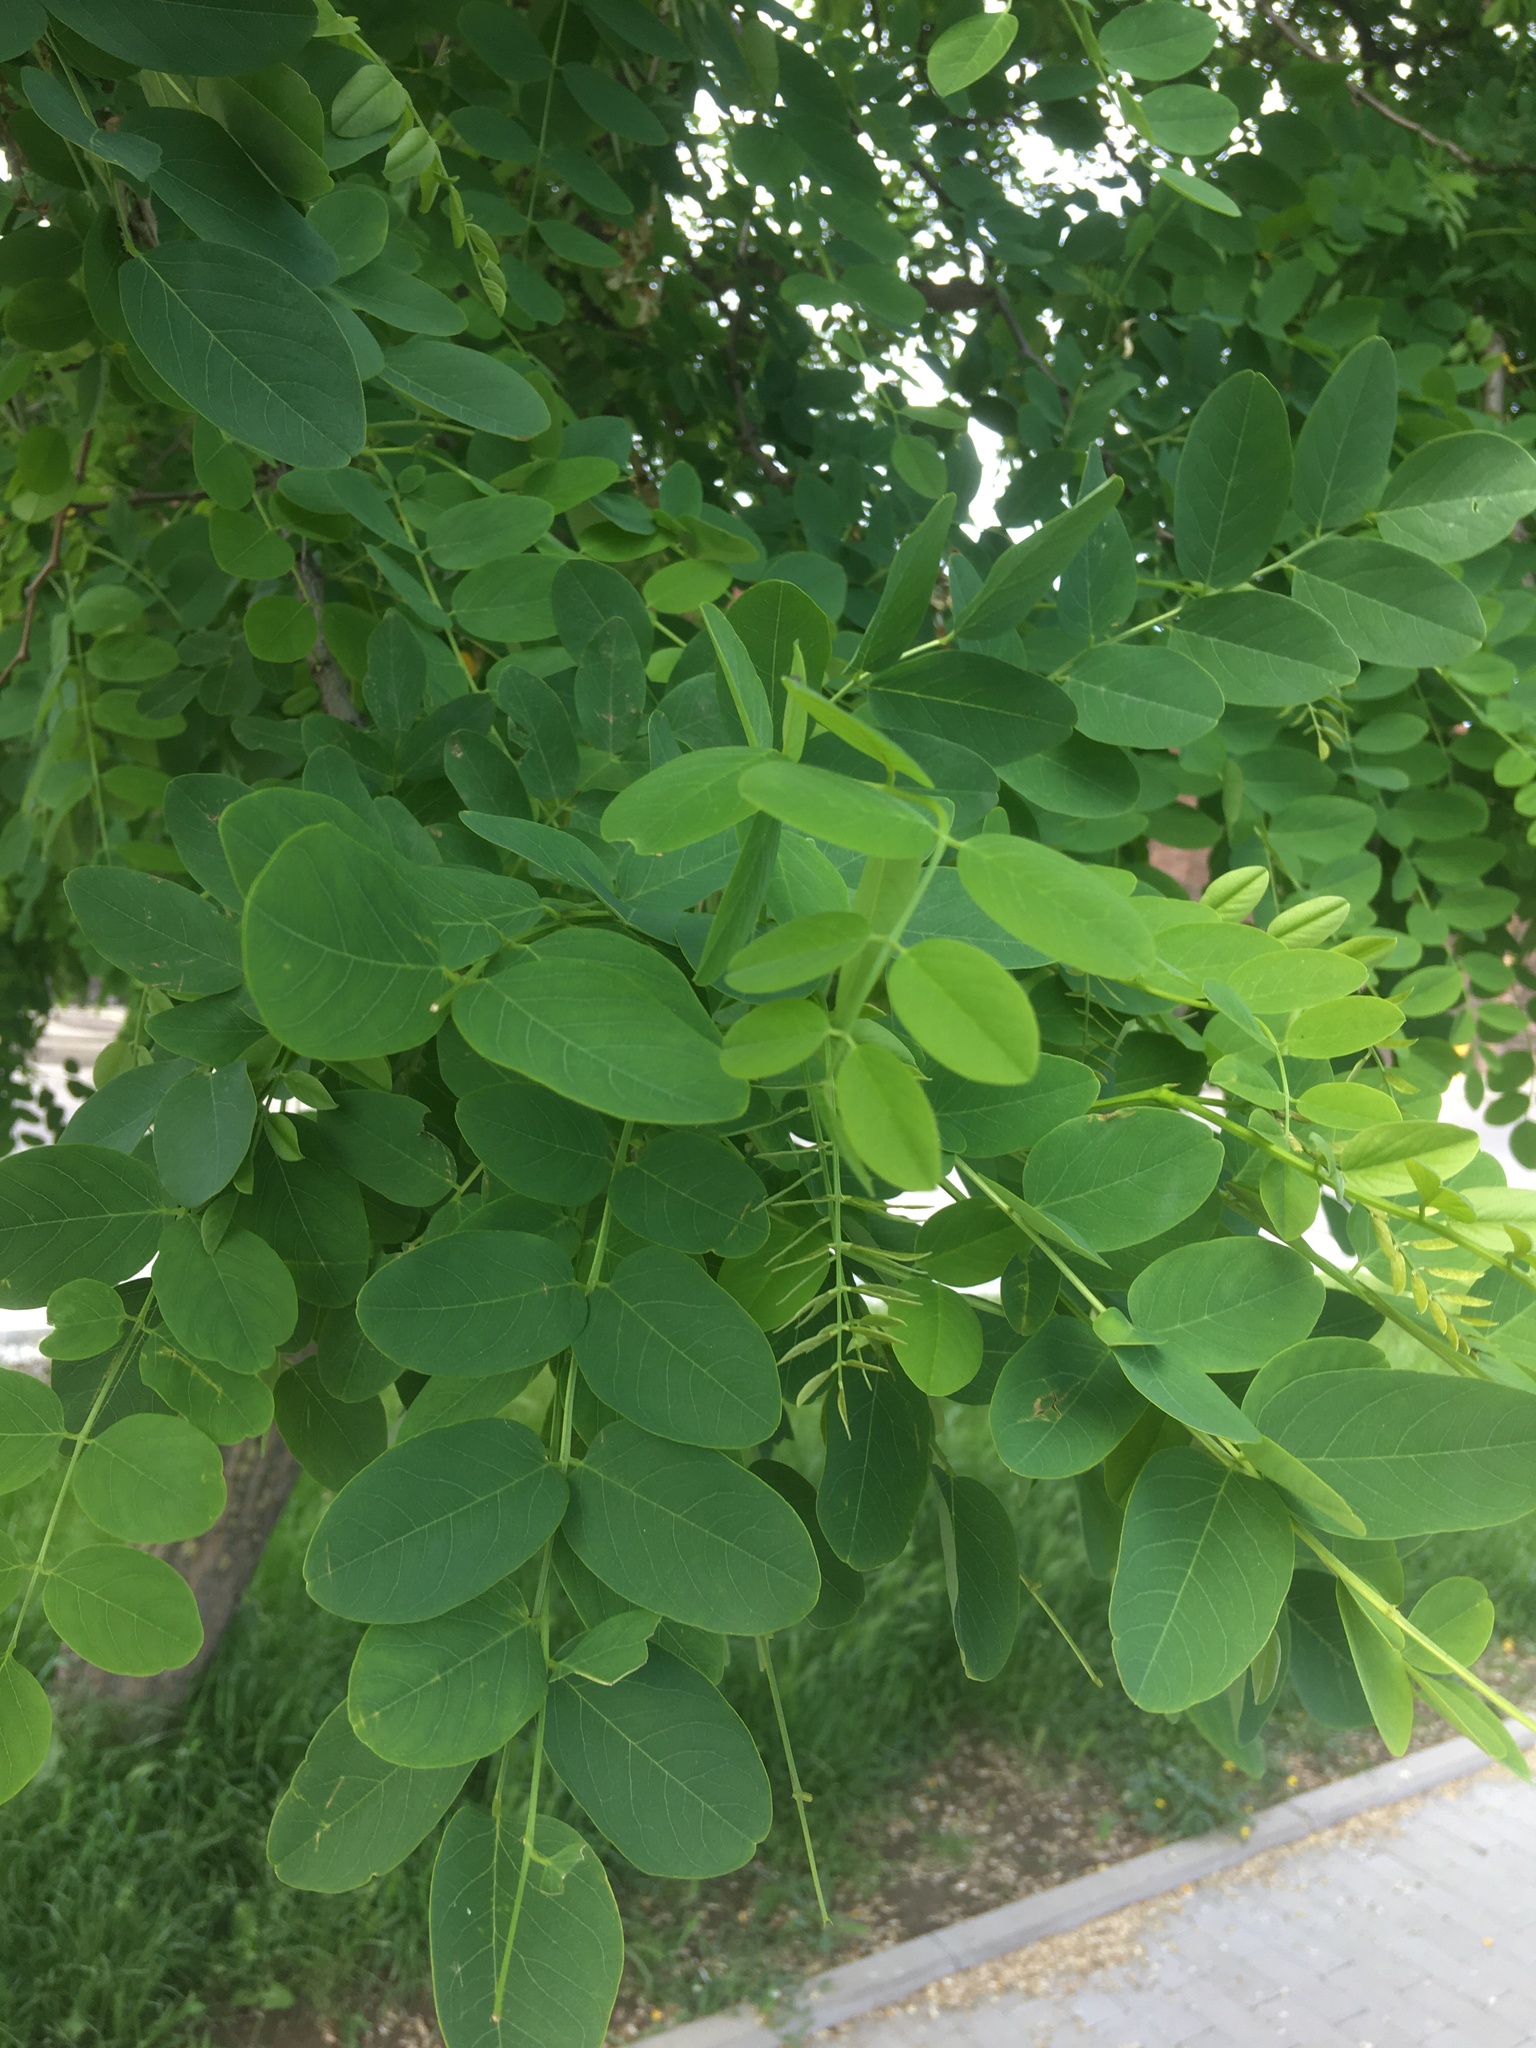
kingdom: Plantae
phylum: Tracheophyta
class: Magnoliopsida
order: Fabales
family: Fabaceae
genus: Robinia
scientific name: Robinia pseudoacacia
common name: Black locust
